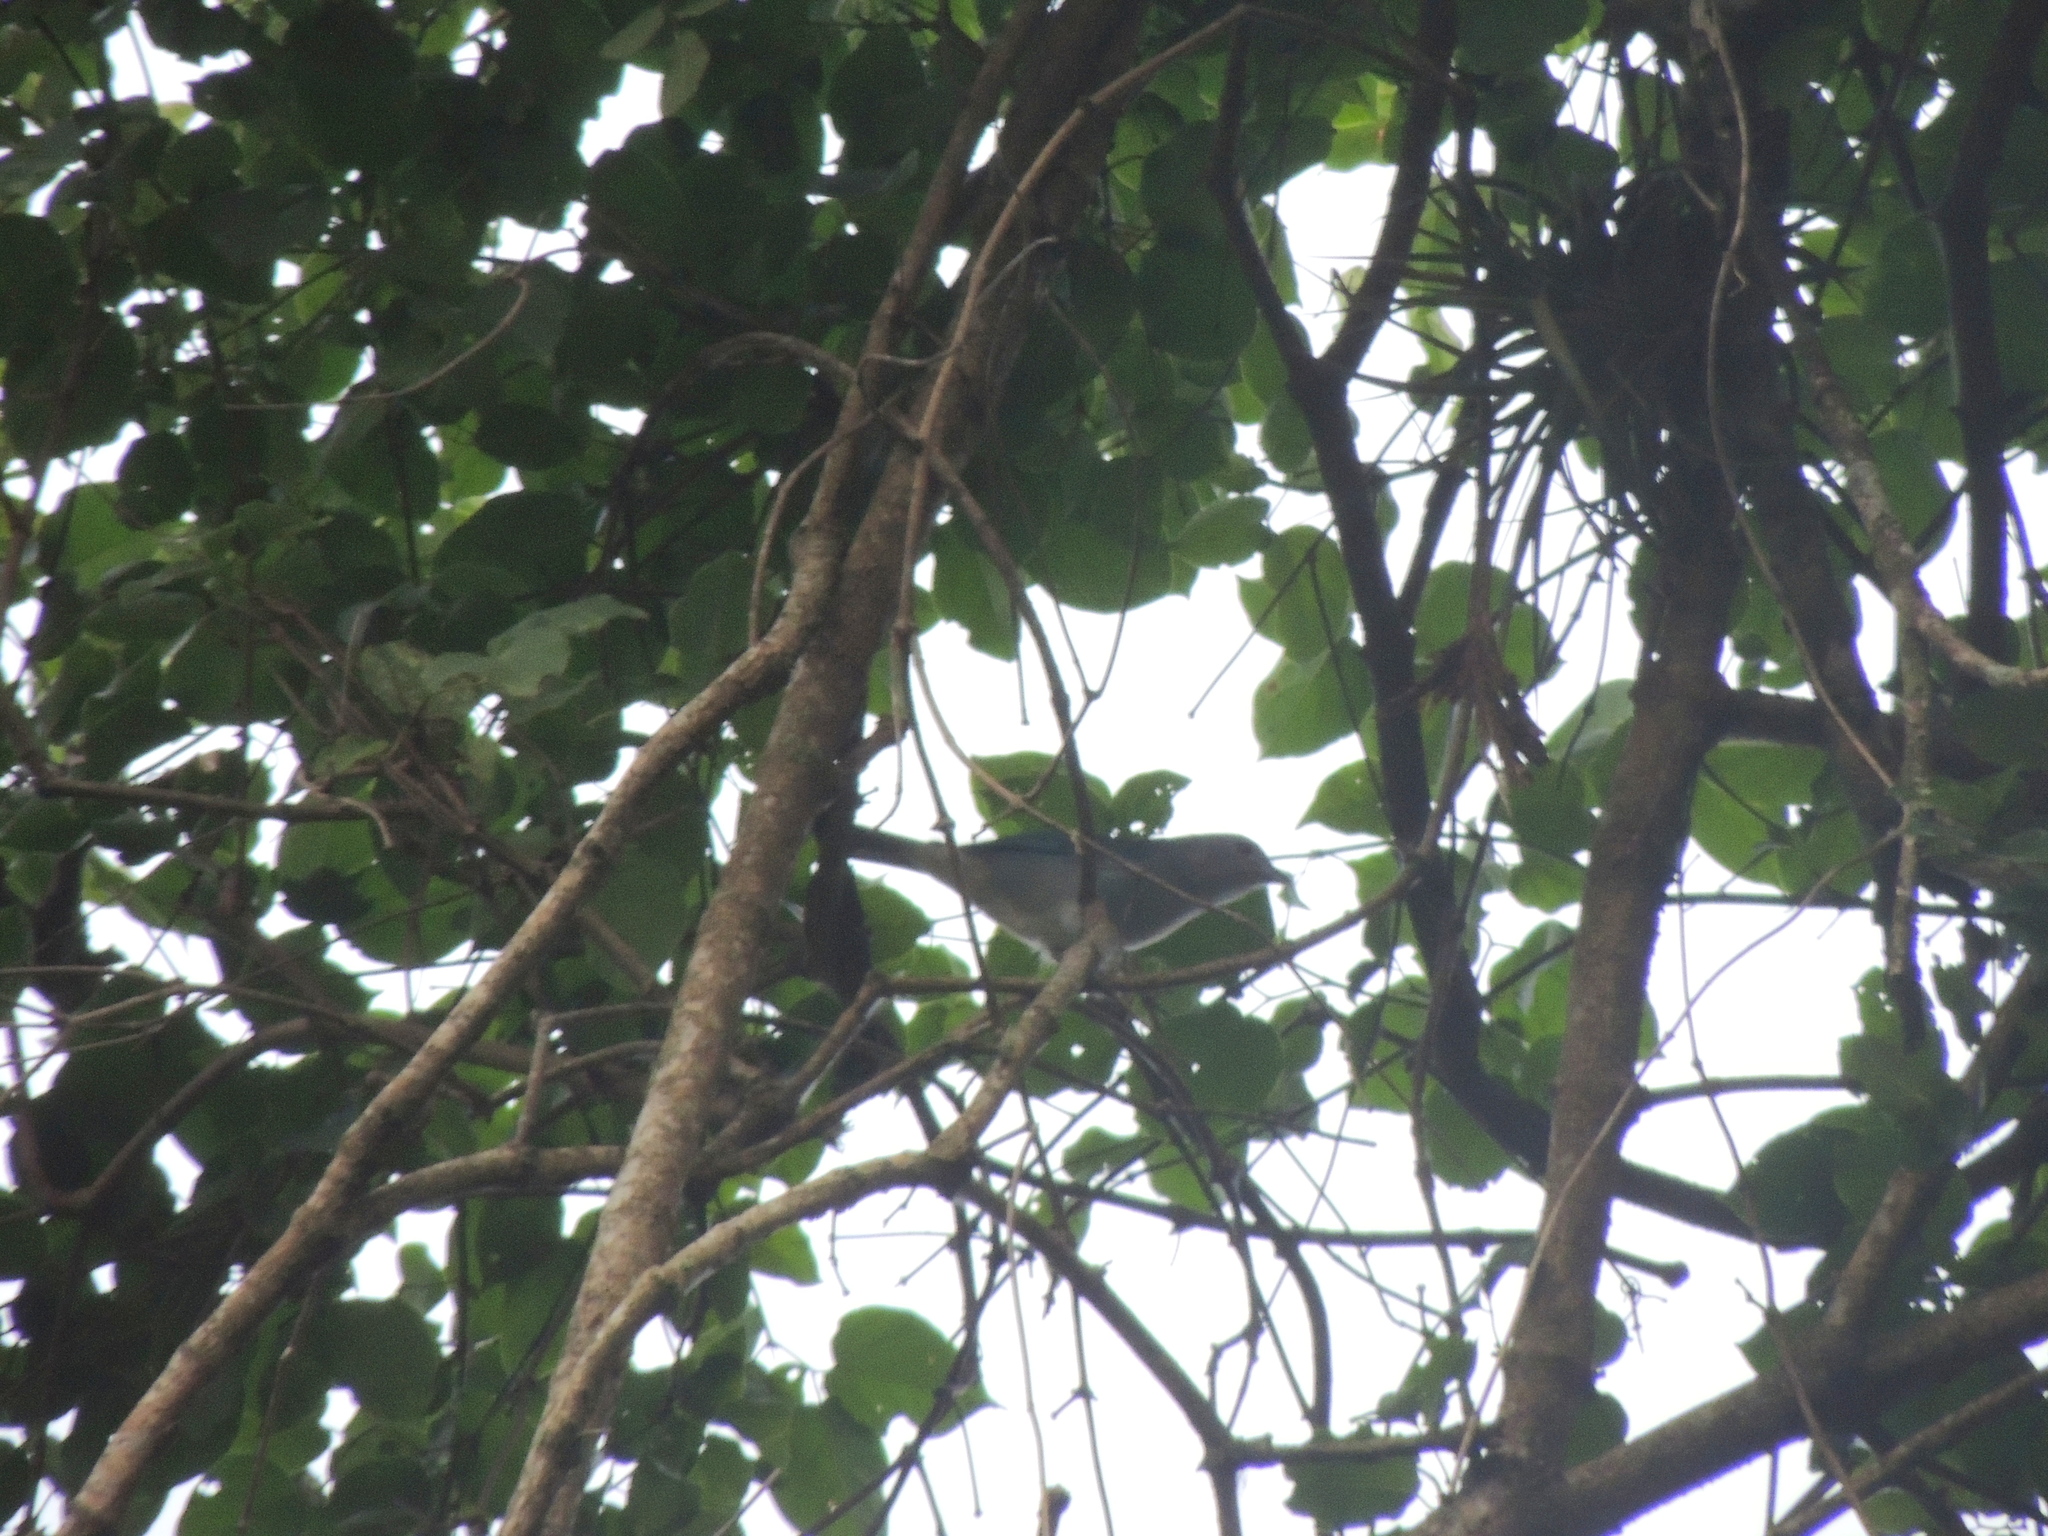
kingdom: Animalia
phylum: Chordata
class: Aves
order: Passeriformes
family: Thraupidae
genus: Thraupis
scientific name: Thraupis sayaca
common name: Sayaca tanager
